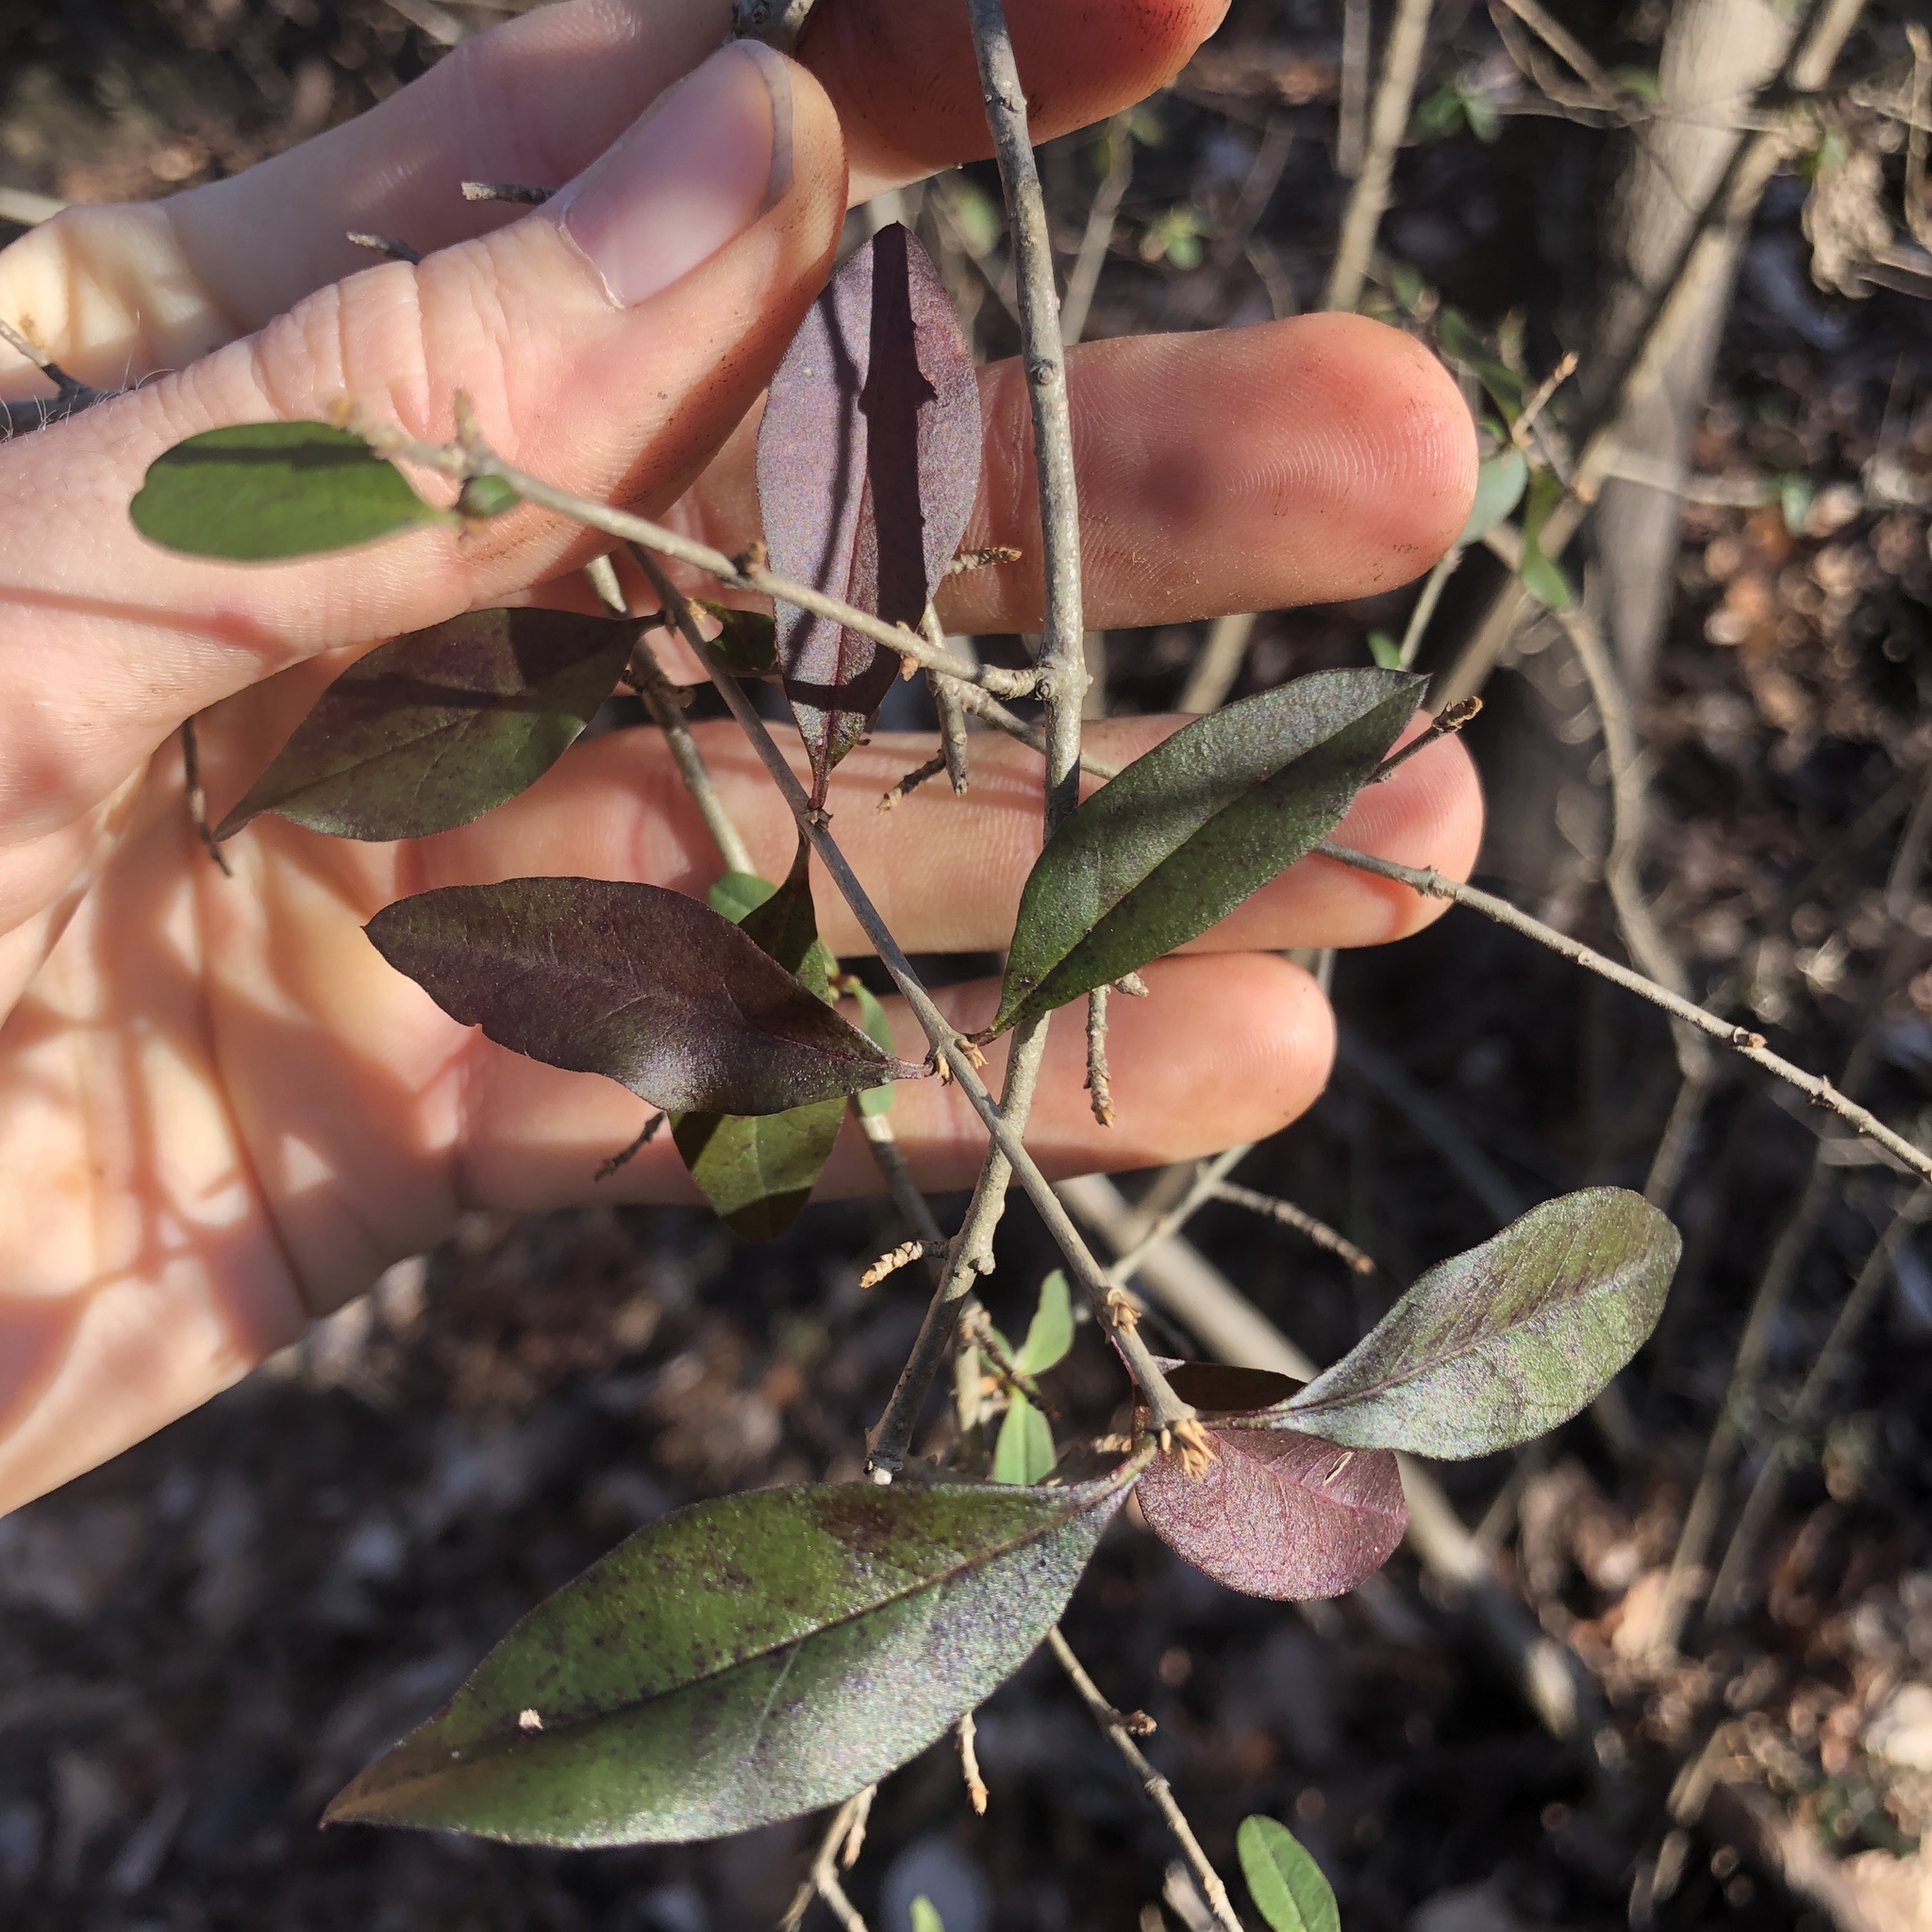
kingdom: Plantae
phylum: Tracheophyta
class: Magnoliopsida
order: Lamiales
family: Oleaceae
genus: Ligustrum
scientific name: Ligustrum obtusifolium
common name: Border privet
